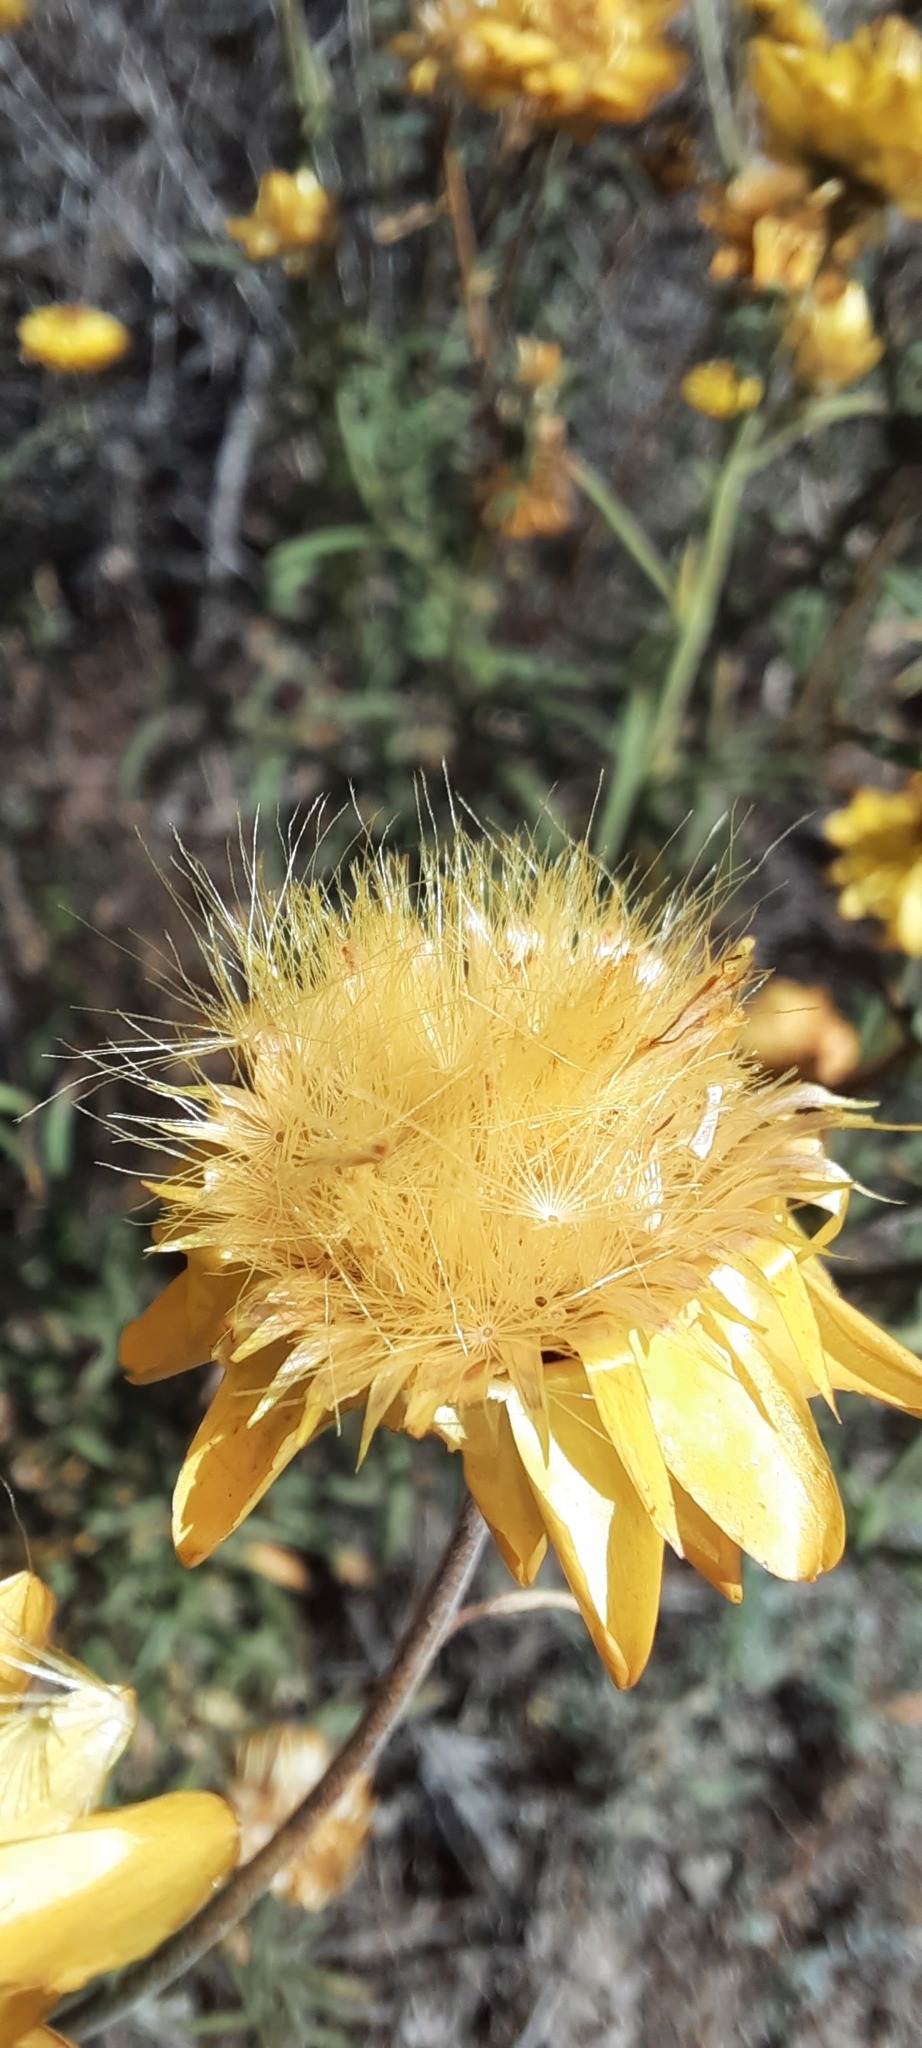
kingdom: Plantae
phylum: Tracheophyta
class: Magnoliopsida
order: Asterales
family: Asteraceae
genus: Xerochrysum
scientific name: Xerochrysum viscosum
